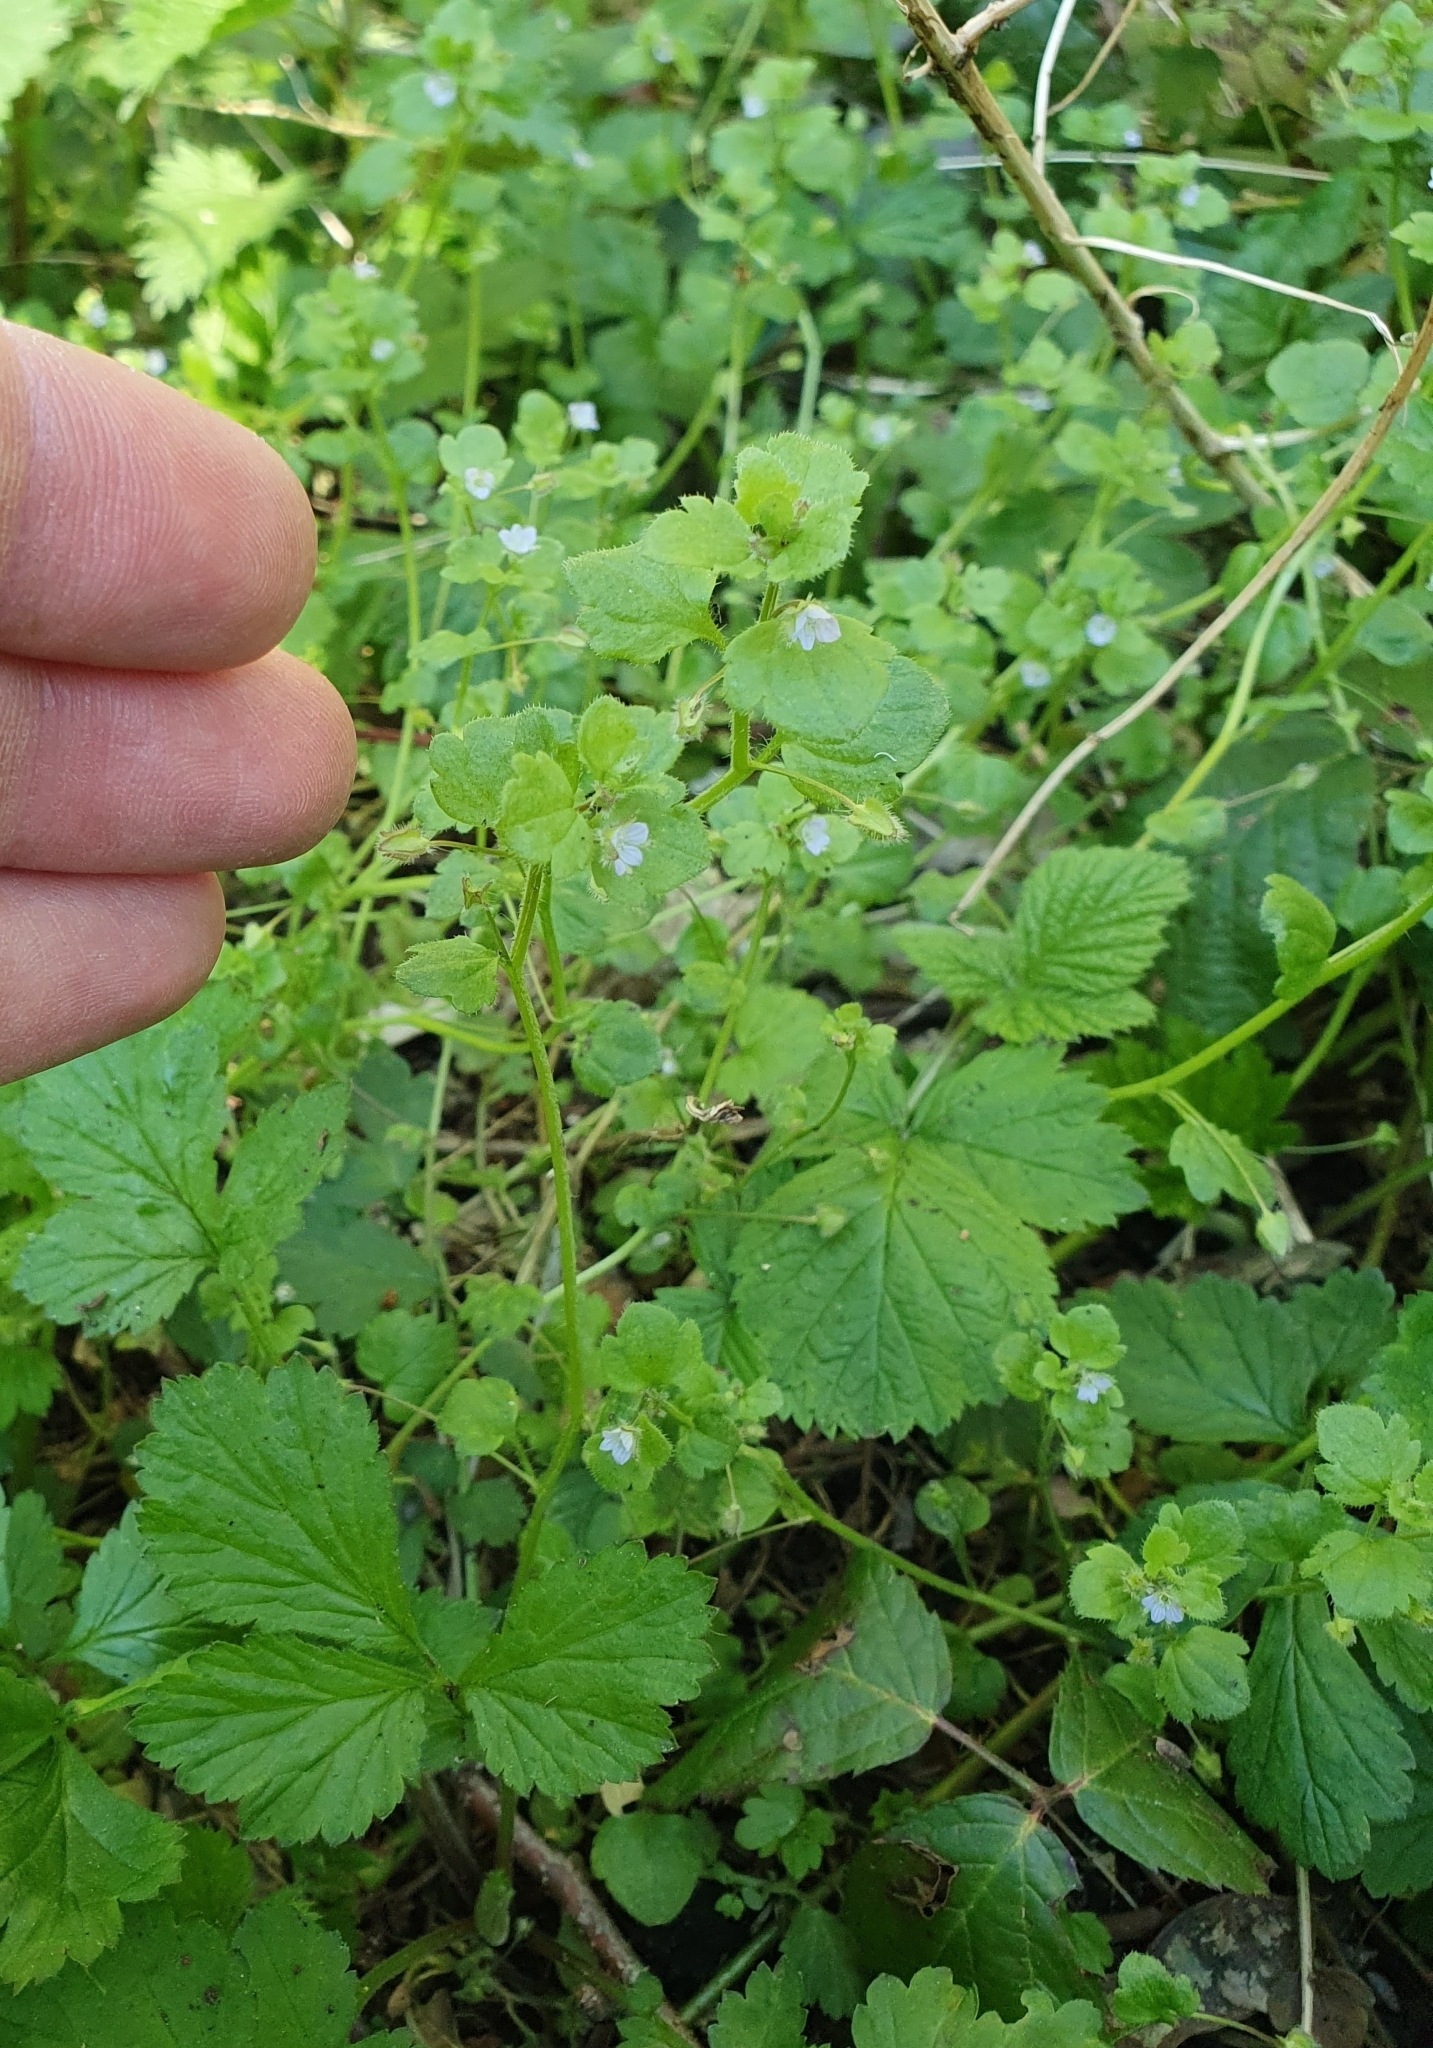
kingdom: Plantae
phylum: Tracheophyta
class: Magnoliopsida
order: Lamiales
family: Plantaginaceae
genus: Veronica
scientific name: Veronica sublobata
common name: False ivy-leaved speedwell
